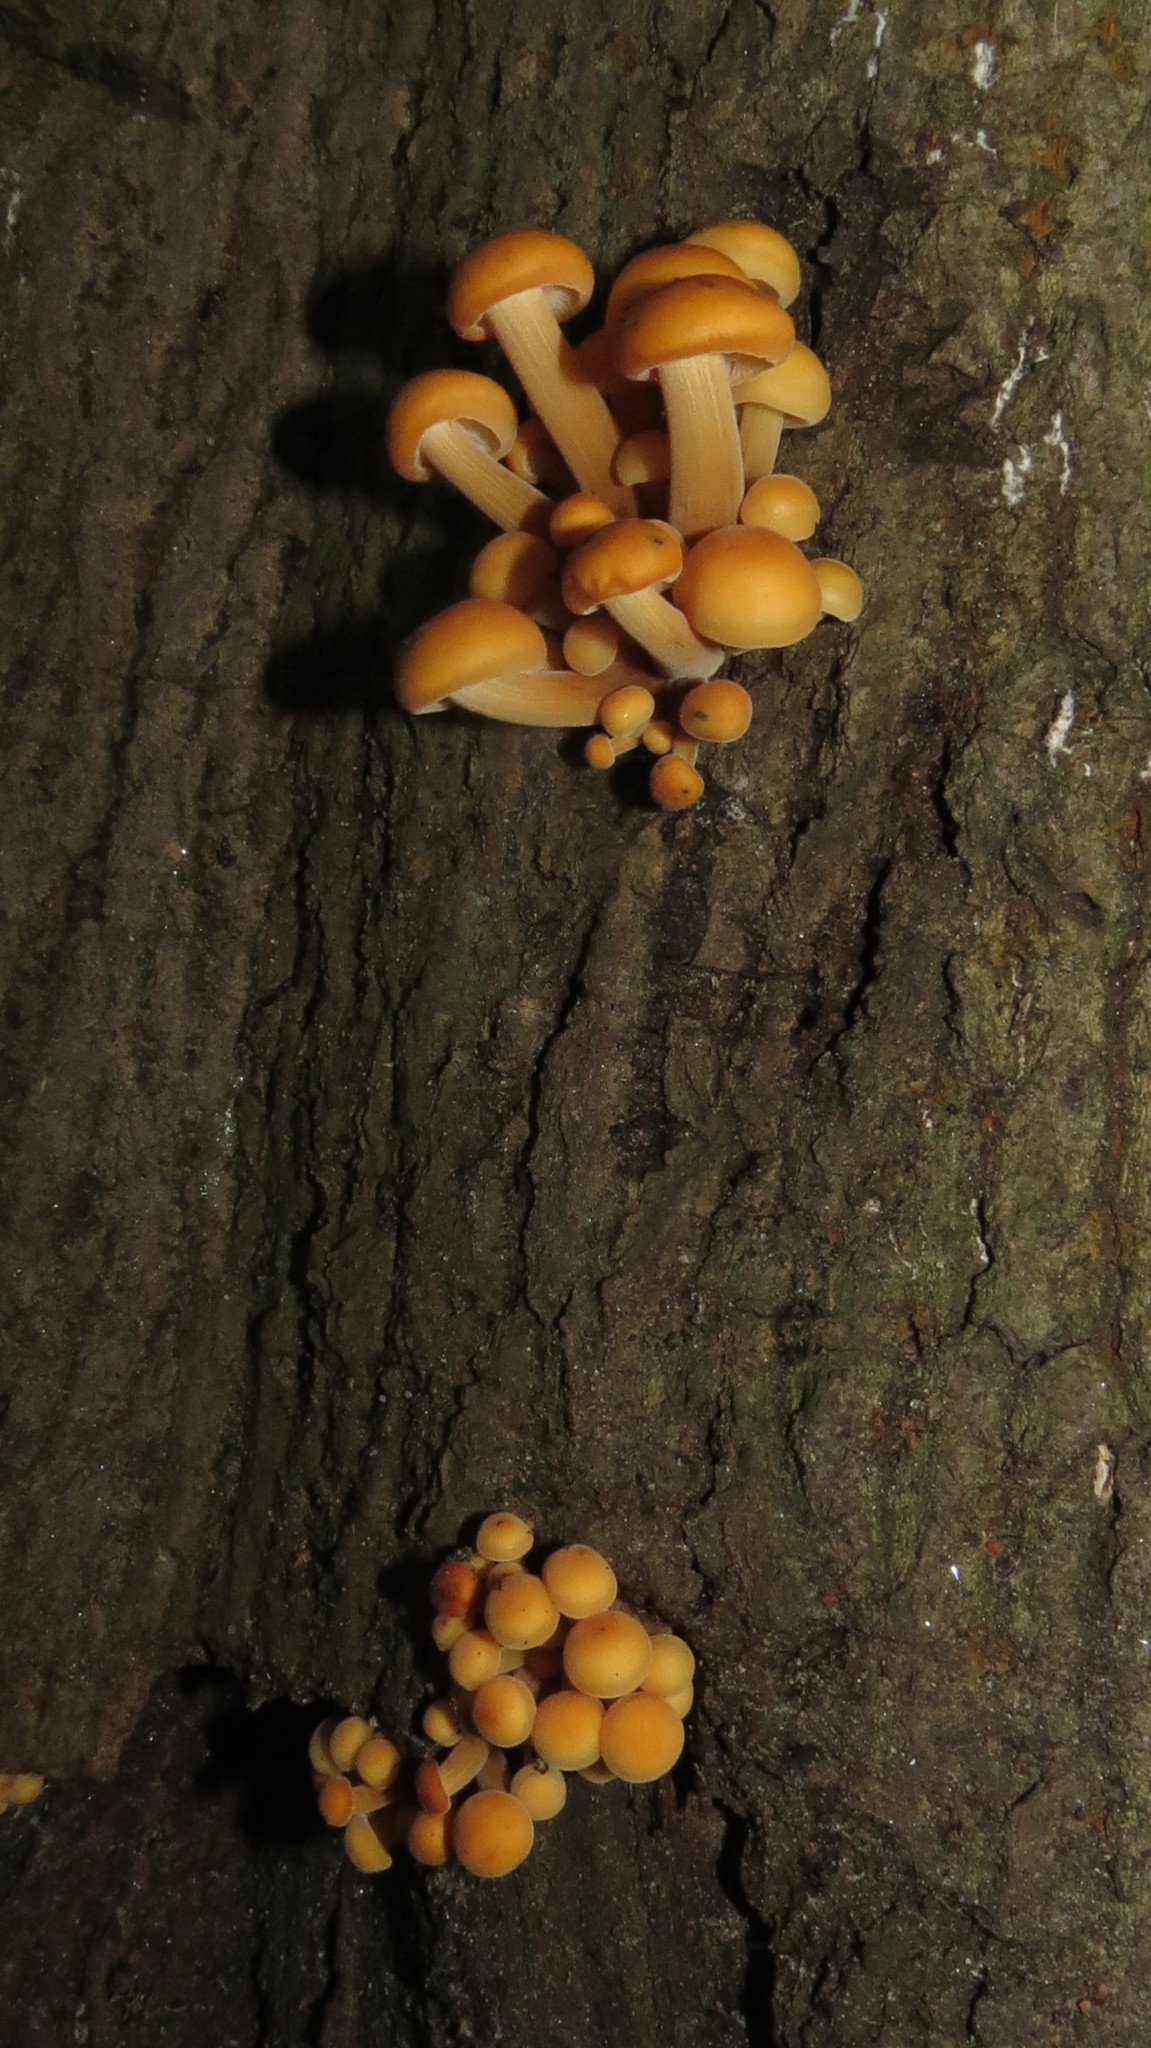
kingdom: Fungi
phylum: Basidiomycota
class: Agaricomycetes
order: Agaricales
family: Physalacriaceae
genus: Flammulina
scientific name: Flammulina
